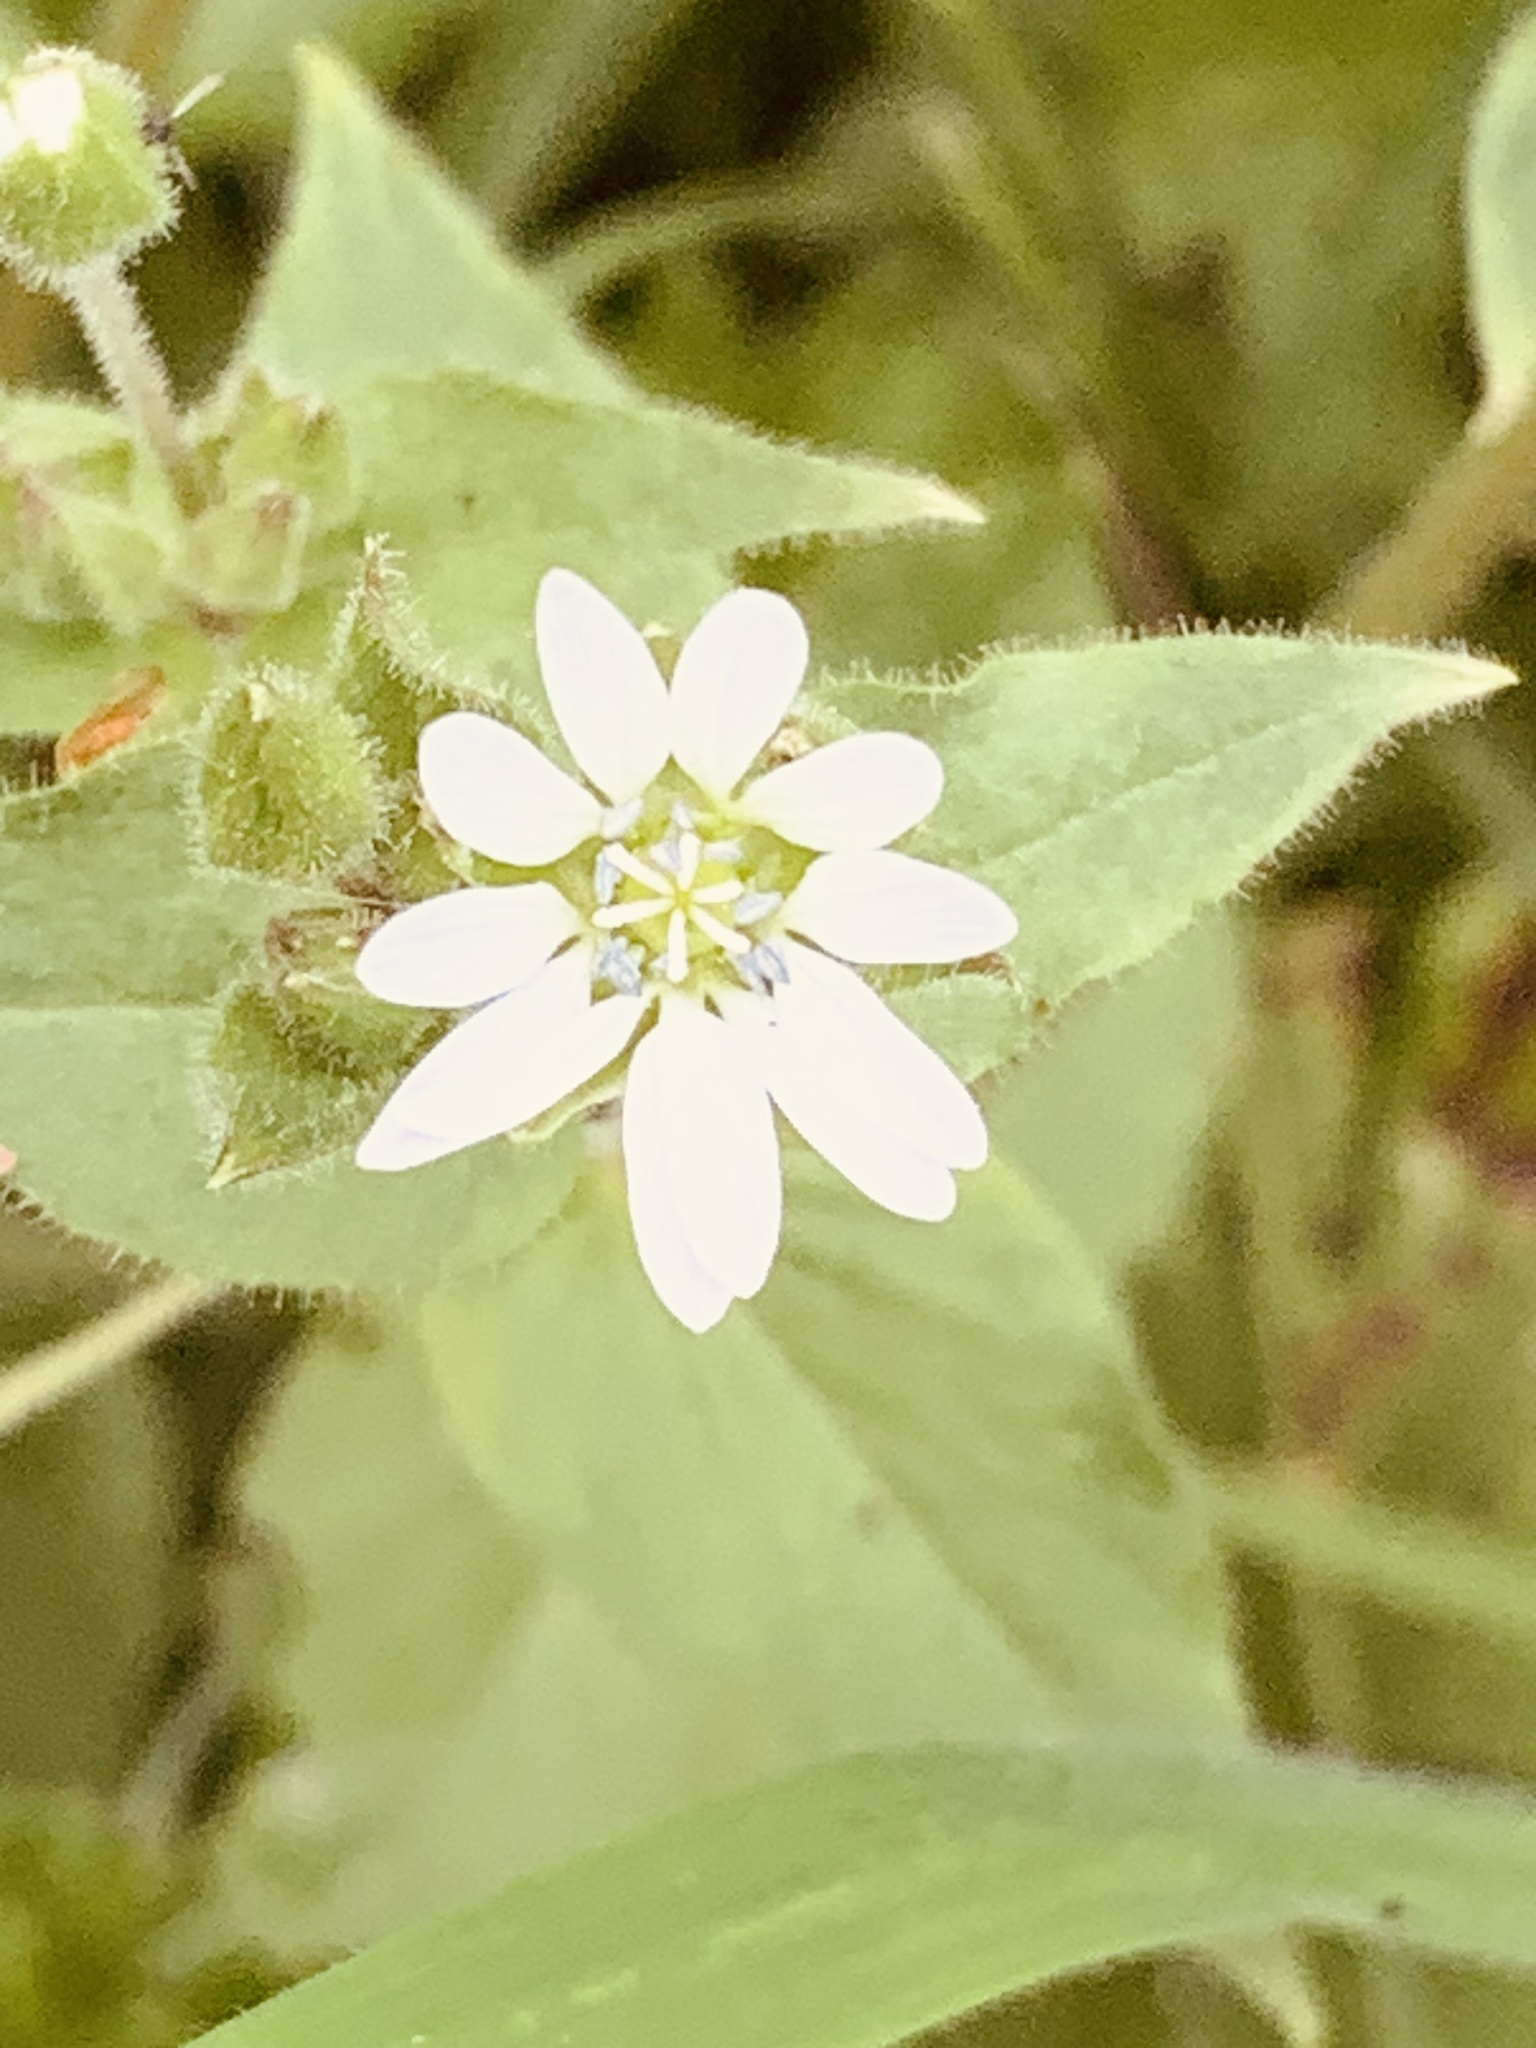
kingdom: Plantae
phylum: Tracheophyta
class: Magnoliopsida
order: Caryophyllales
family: Caryophyllaceae
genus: Stellaria
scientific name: Stellaria aquatica
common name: Water chickweed
